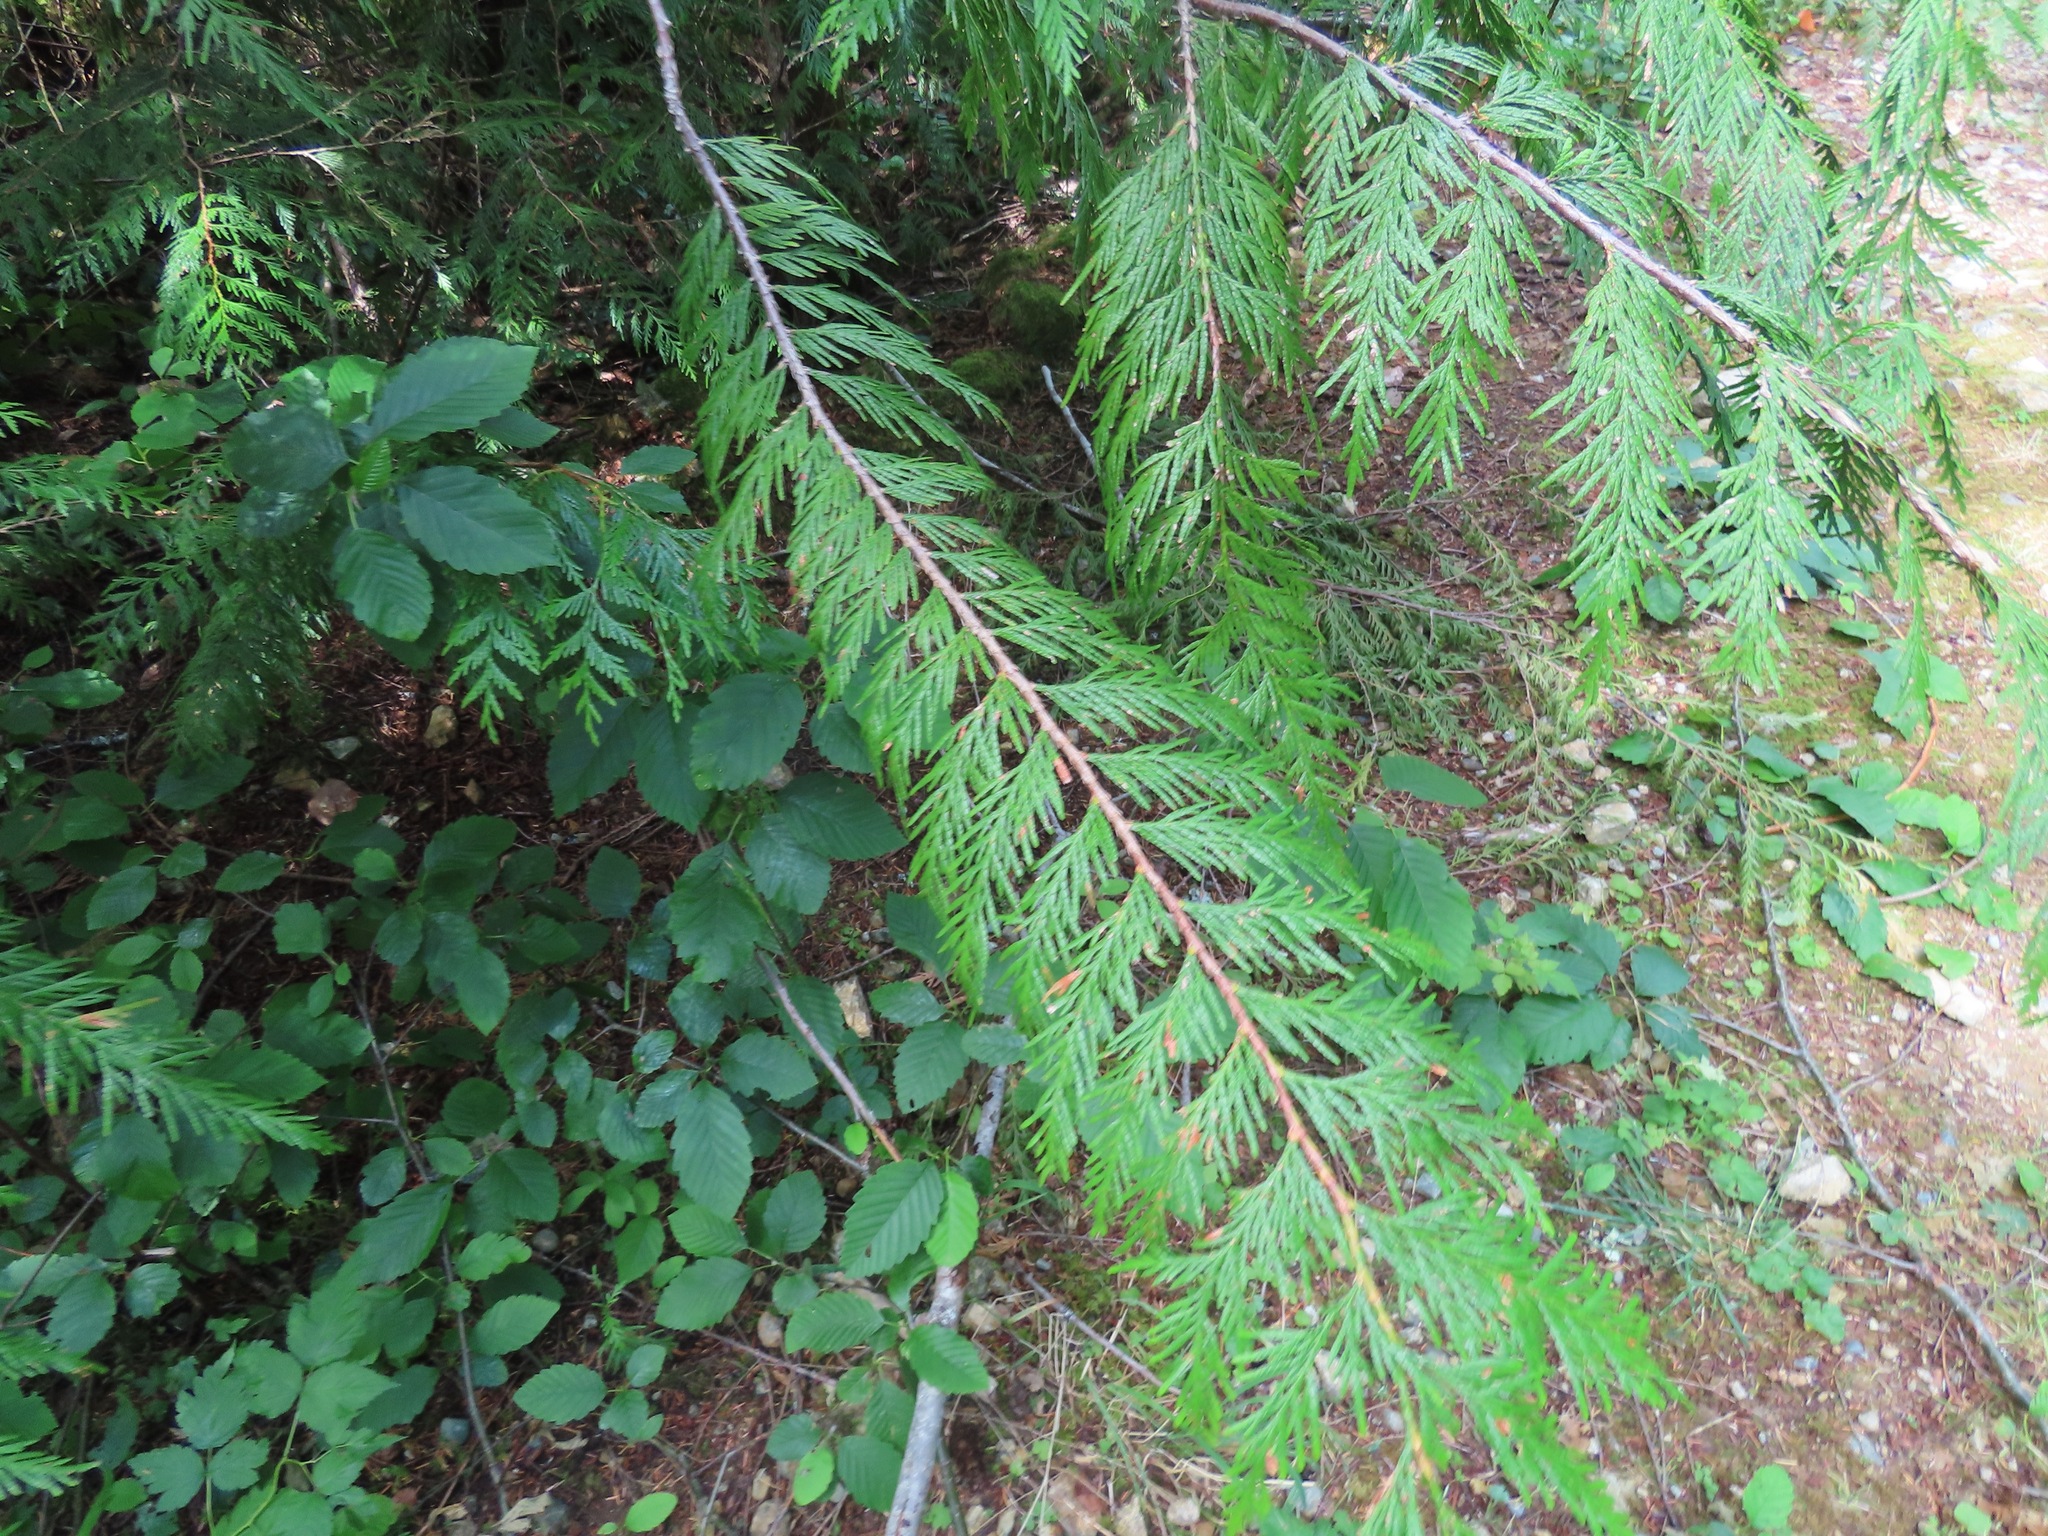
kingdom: Plantae
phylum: Tracheophyta
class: Pinopsida
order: Pinales
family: Cupressaceae
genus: Thuja
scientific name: Thuja plicata
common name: Western red-cedar
